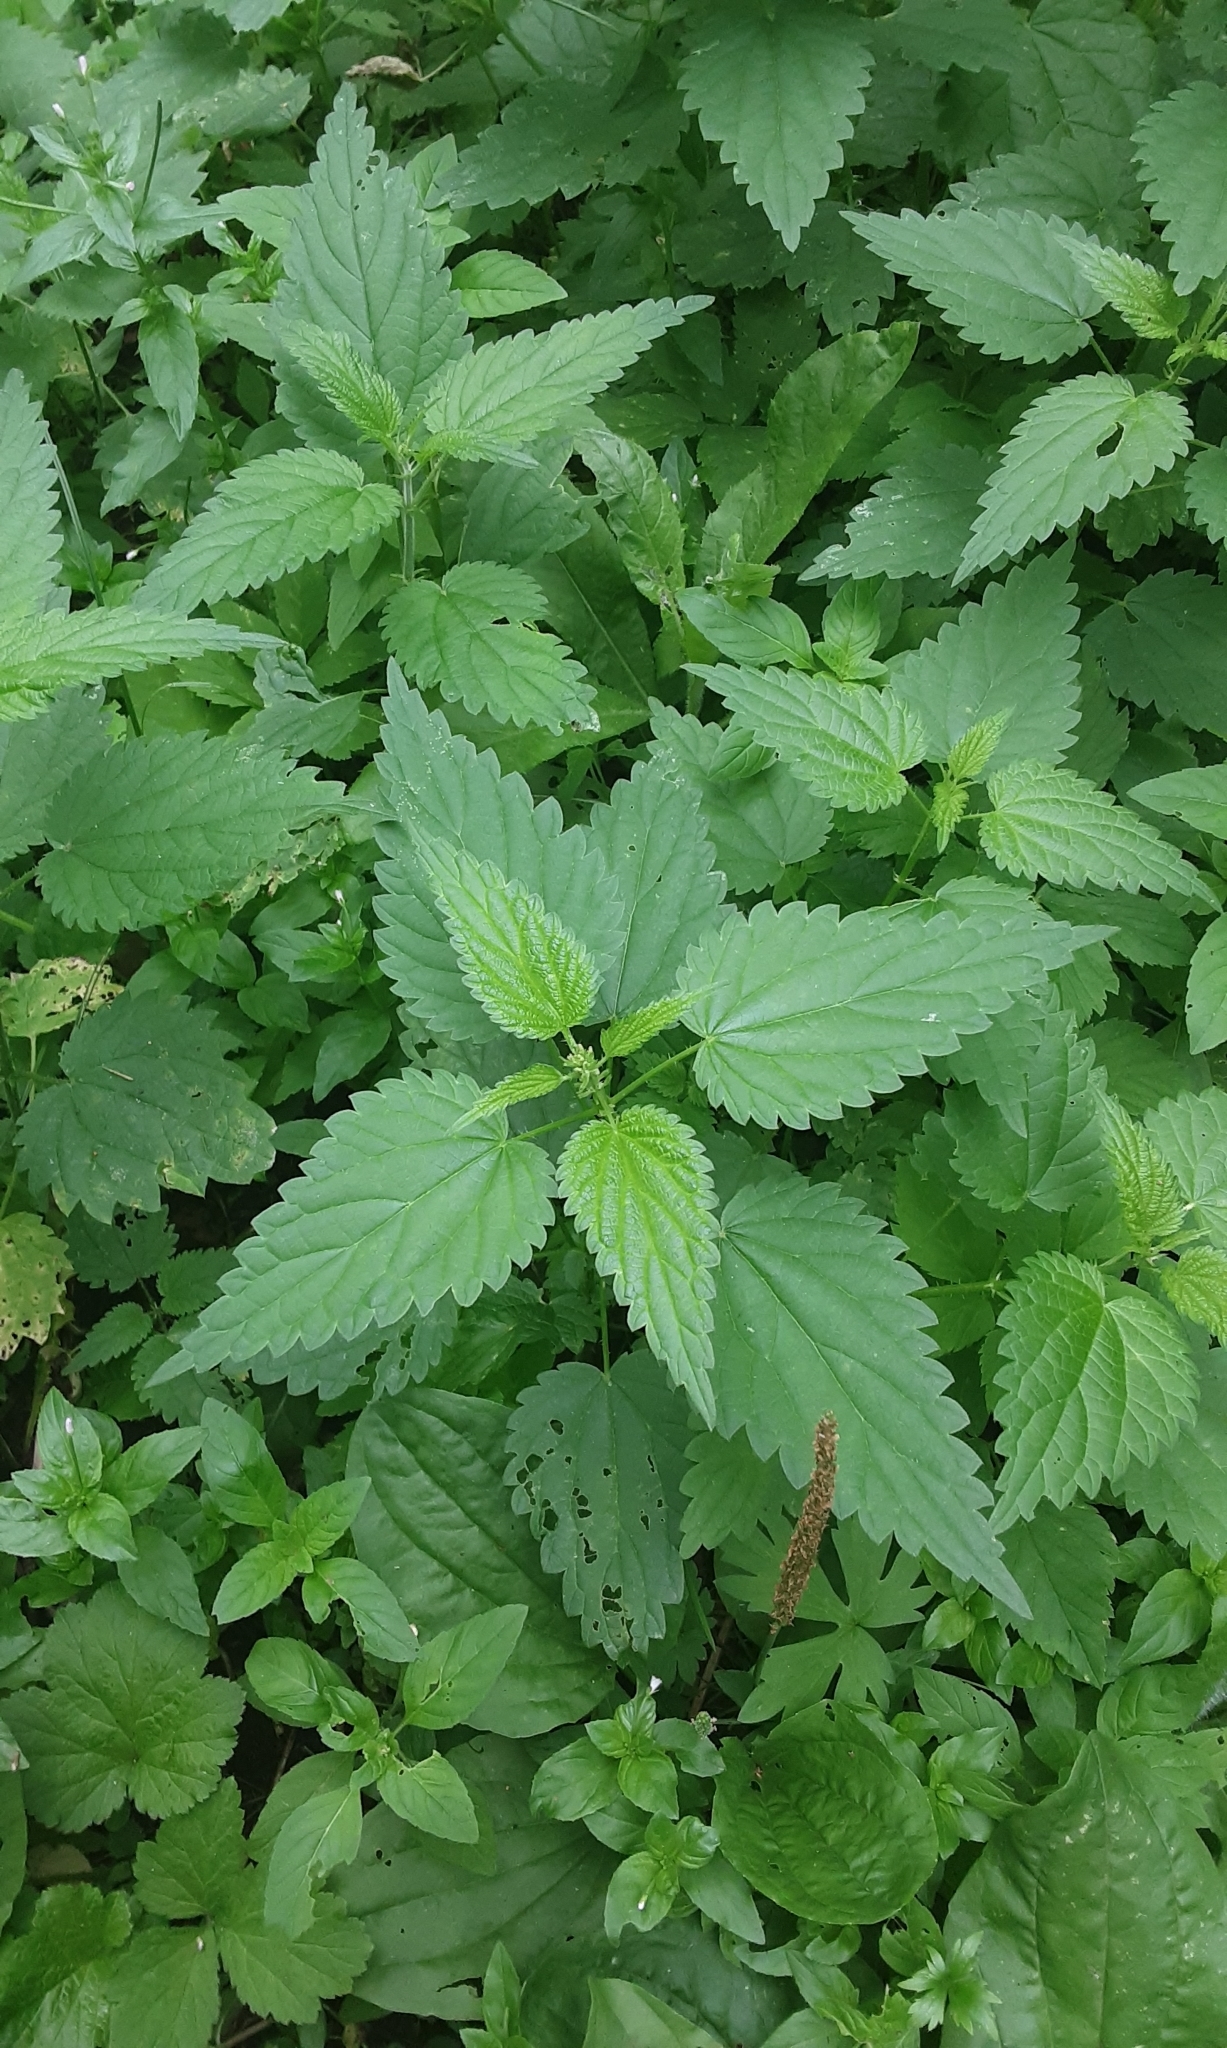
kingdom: Plantae
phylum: Tracheophyta
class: Magnoliopsida
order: Rosales
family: Urticaceae
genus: Urtica
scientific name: Urtica dioica
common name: Common nettle
